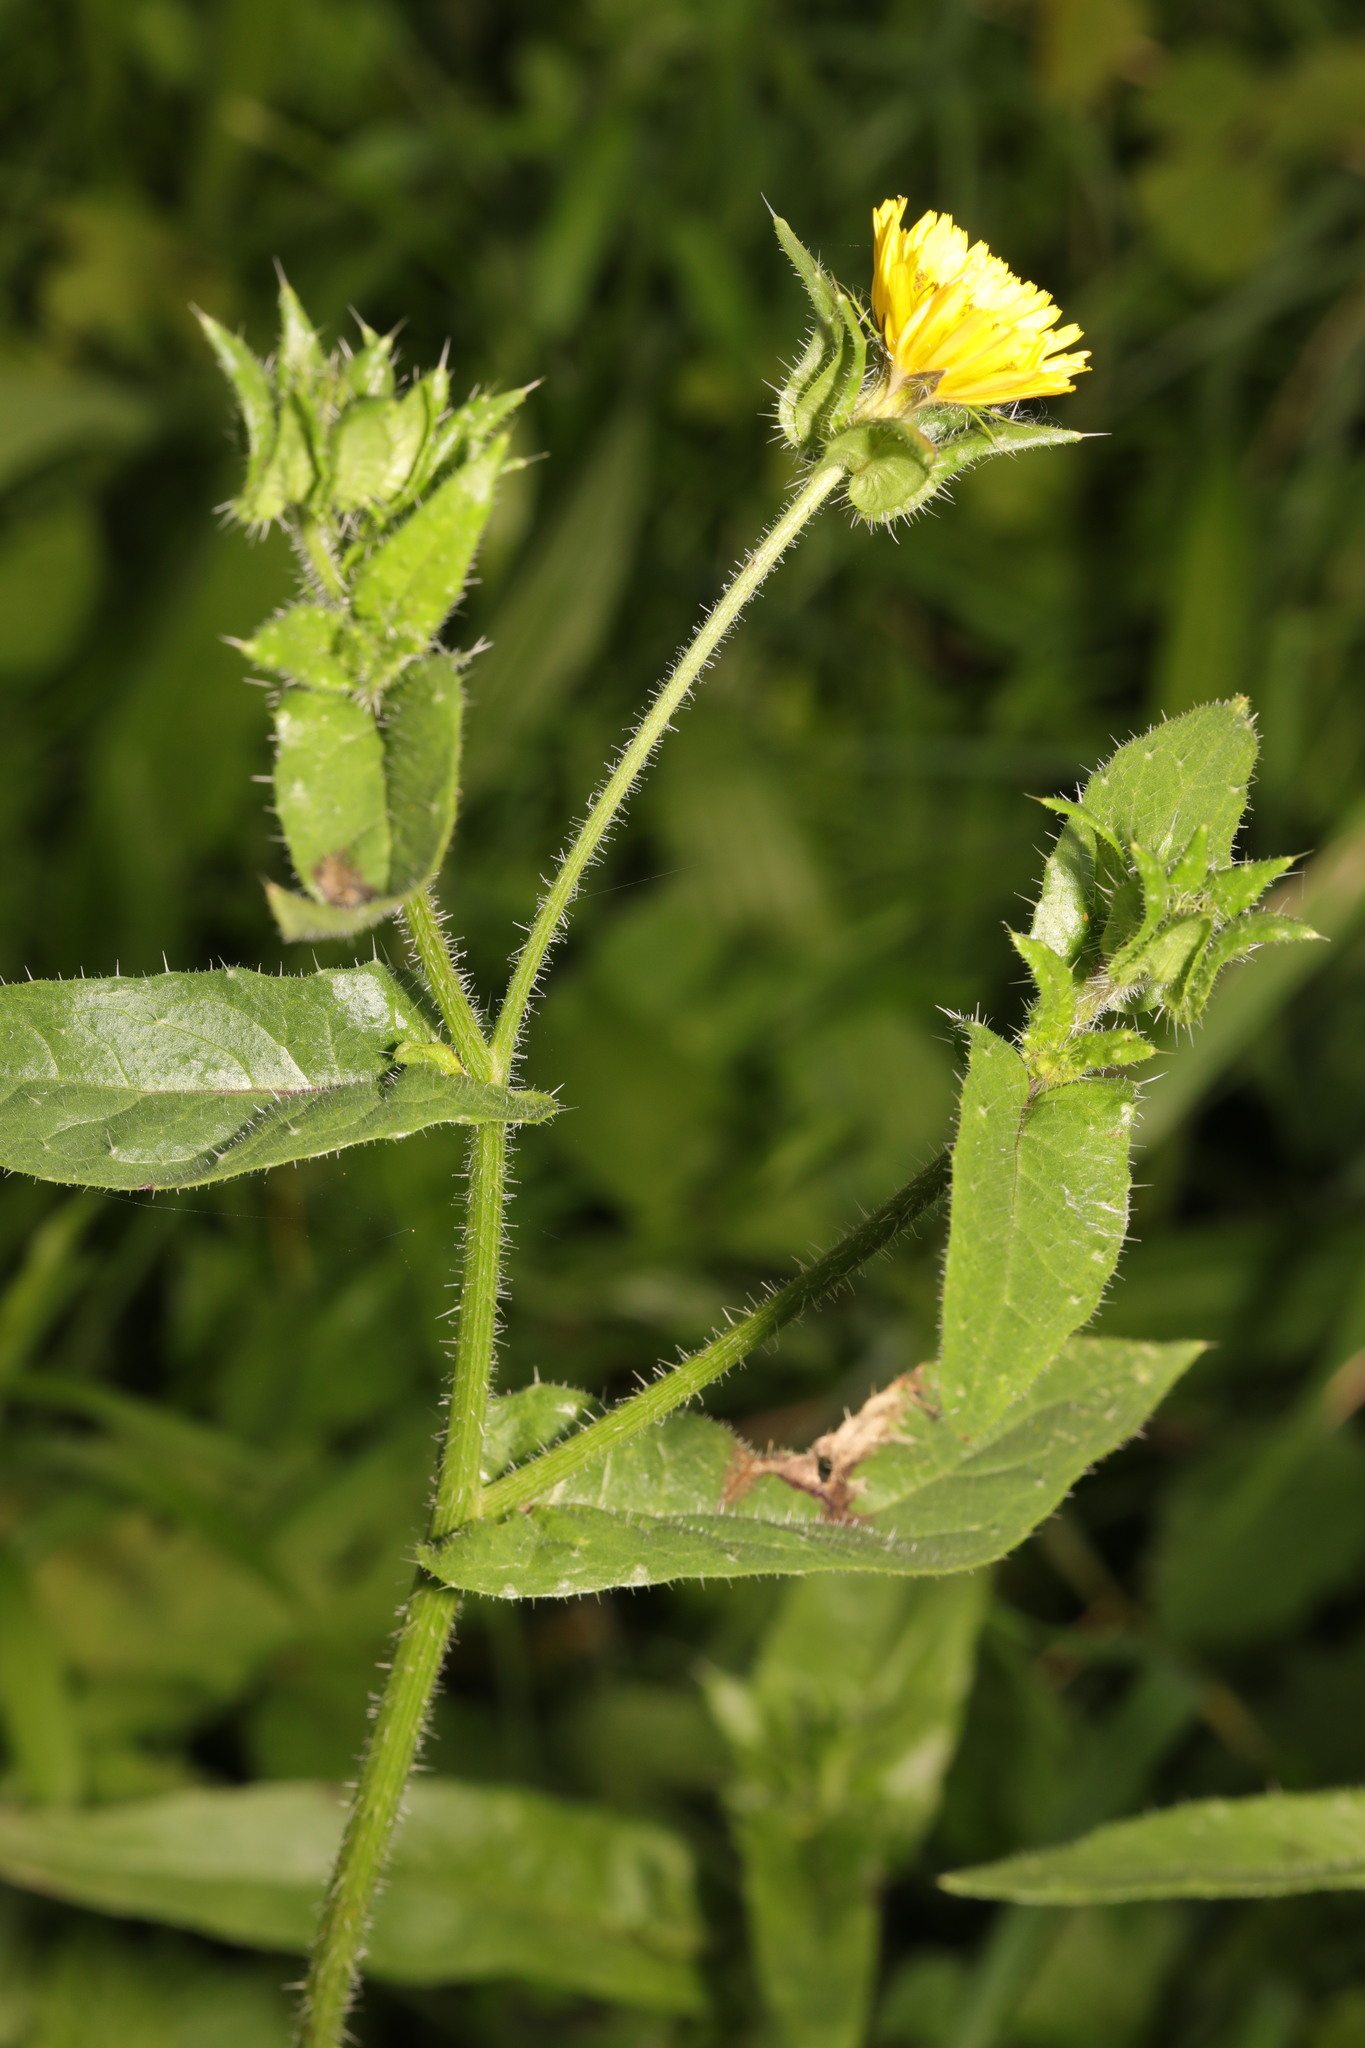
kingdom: Plantae
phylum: Tracheophyta
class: Magnoliopsida
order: Asterales
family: Asteraceae
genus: Helminthotheca
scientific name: Helminthotheca echioides
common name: Ox-tongue
